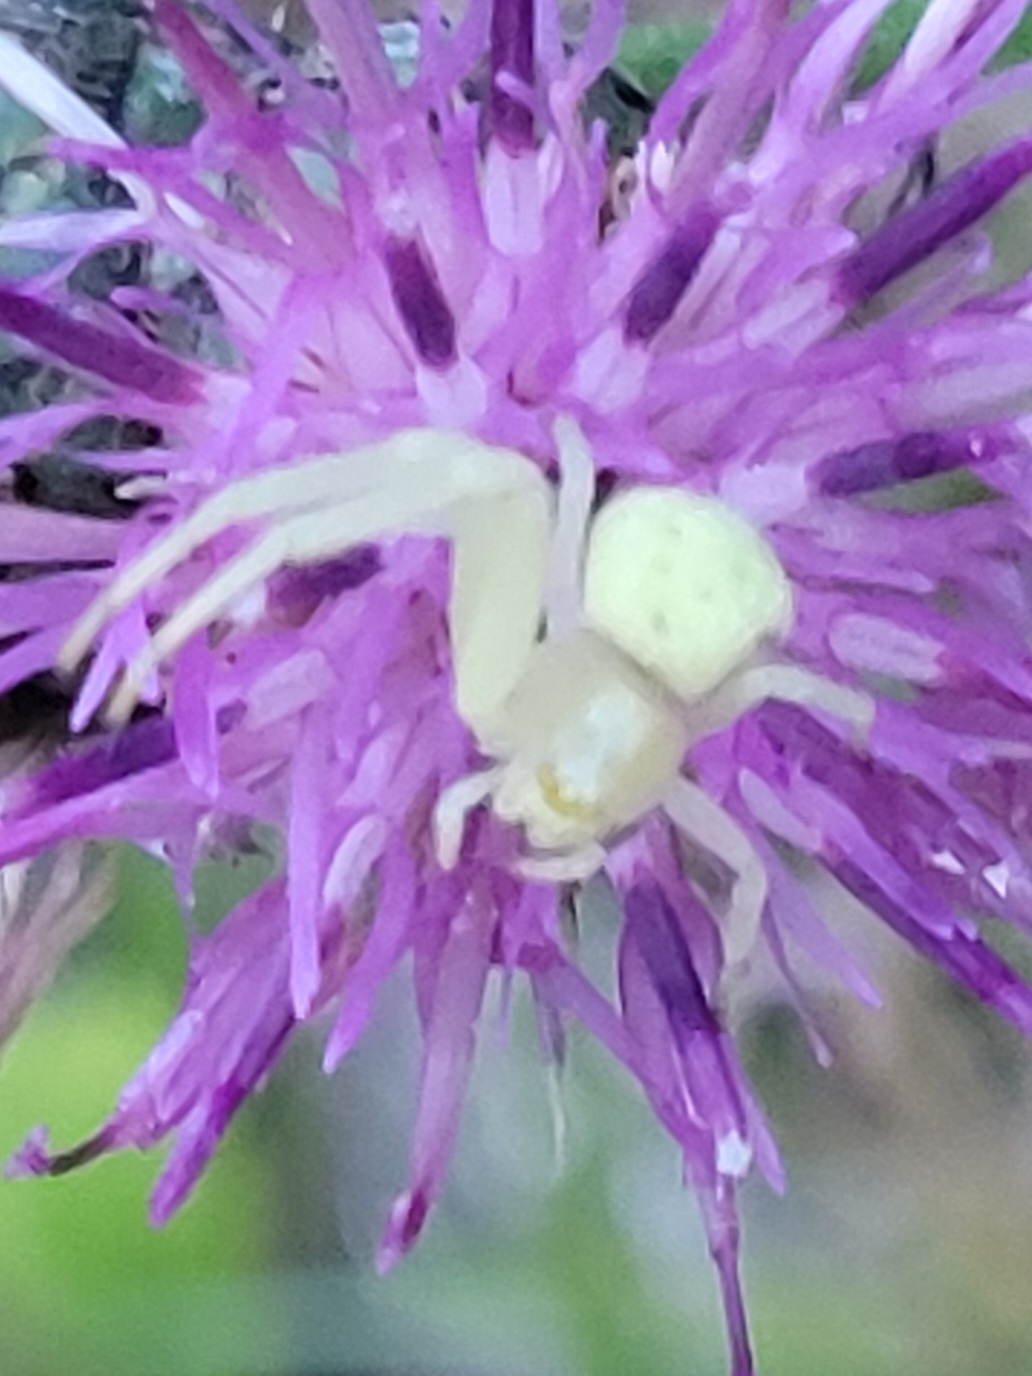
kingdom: Animalia
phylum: Arthropoda
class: Arachnida
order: Araneae
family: Thomisidae
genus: Misumena
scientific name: Misumena vatia
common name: Goldenrod crab spider
